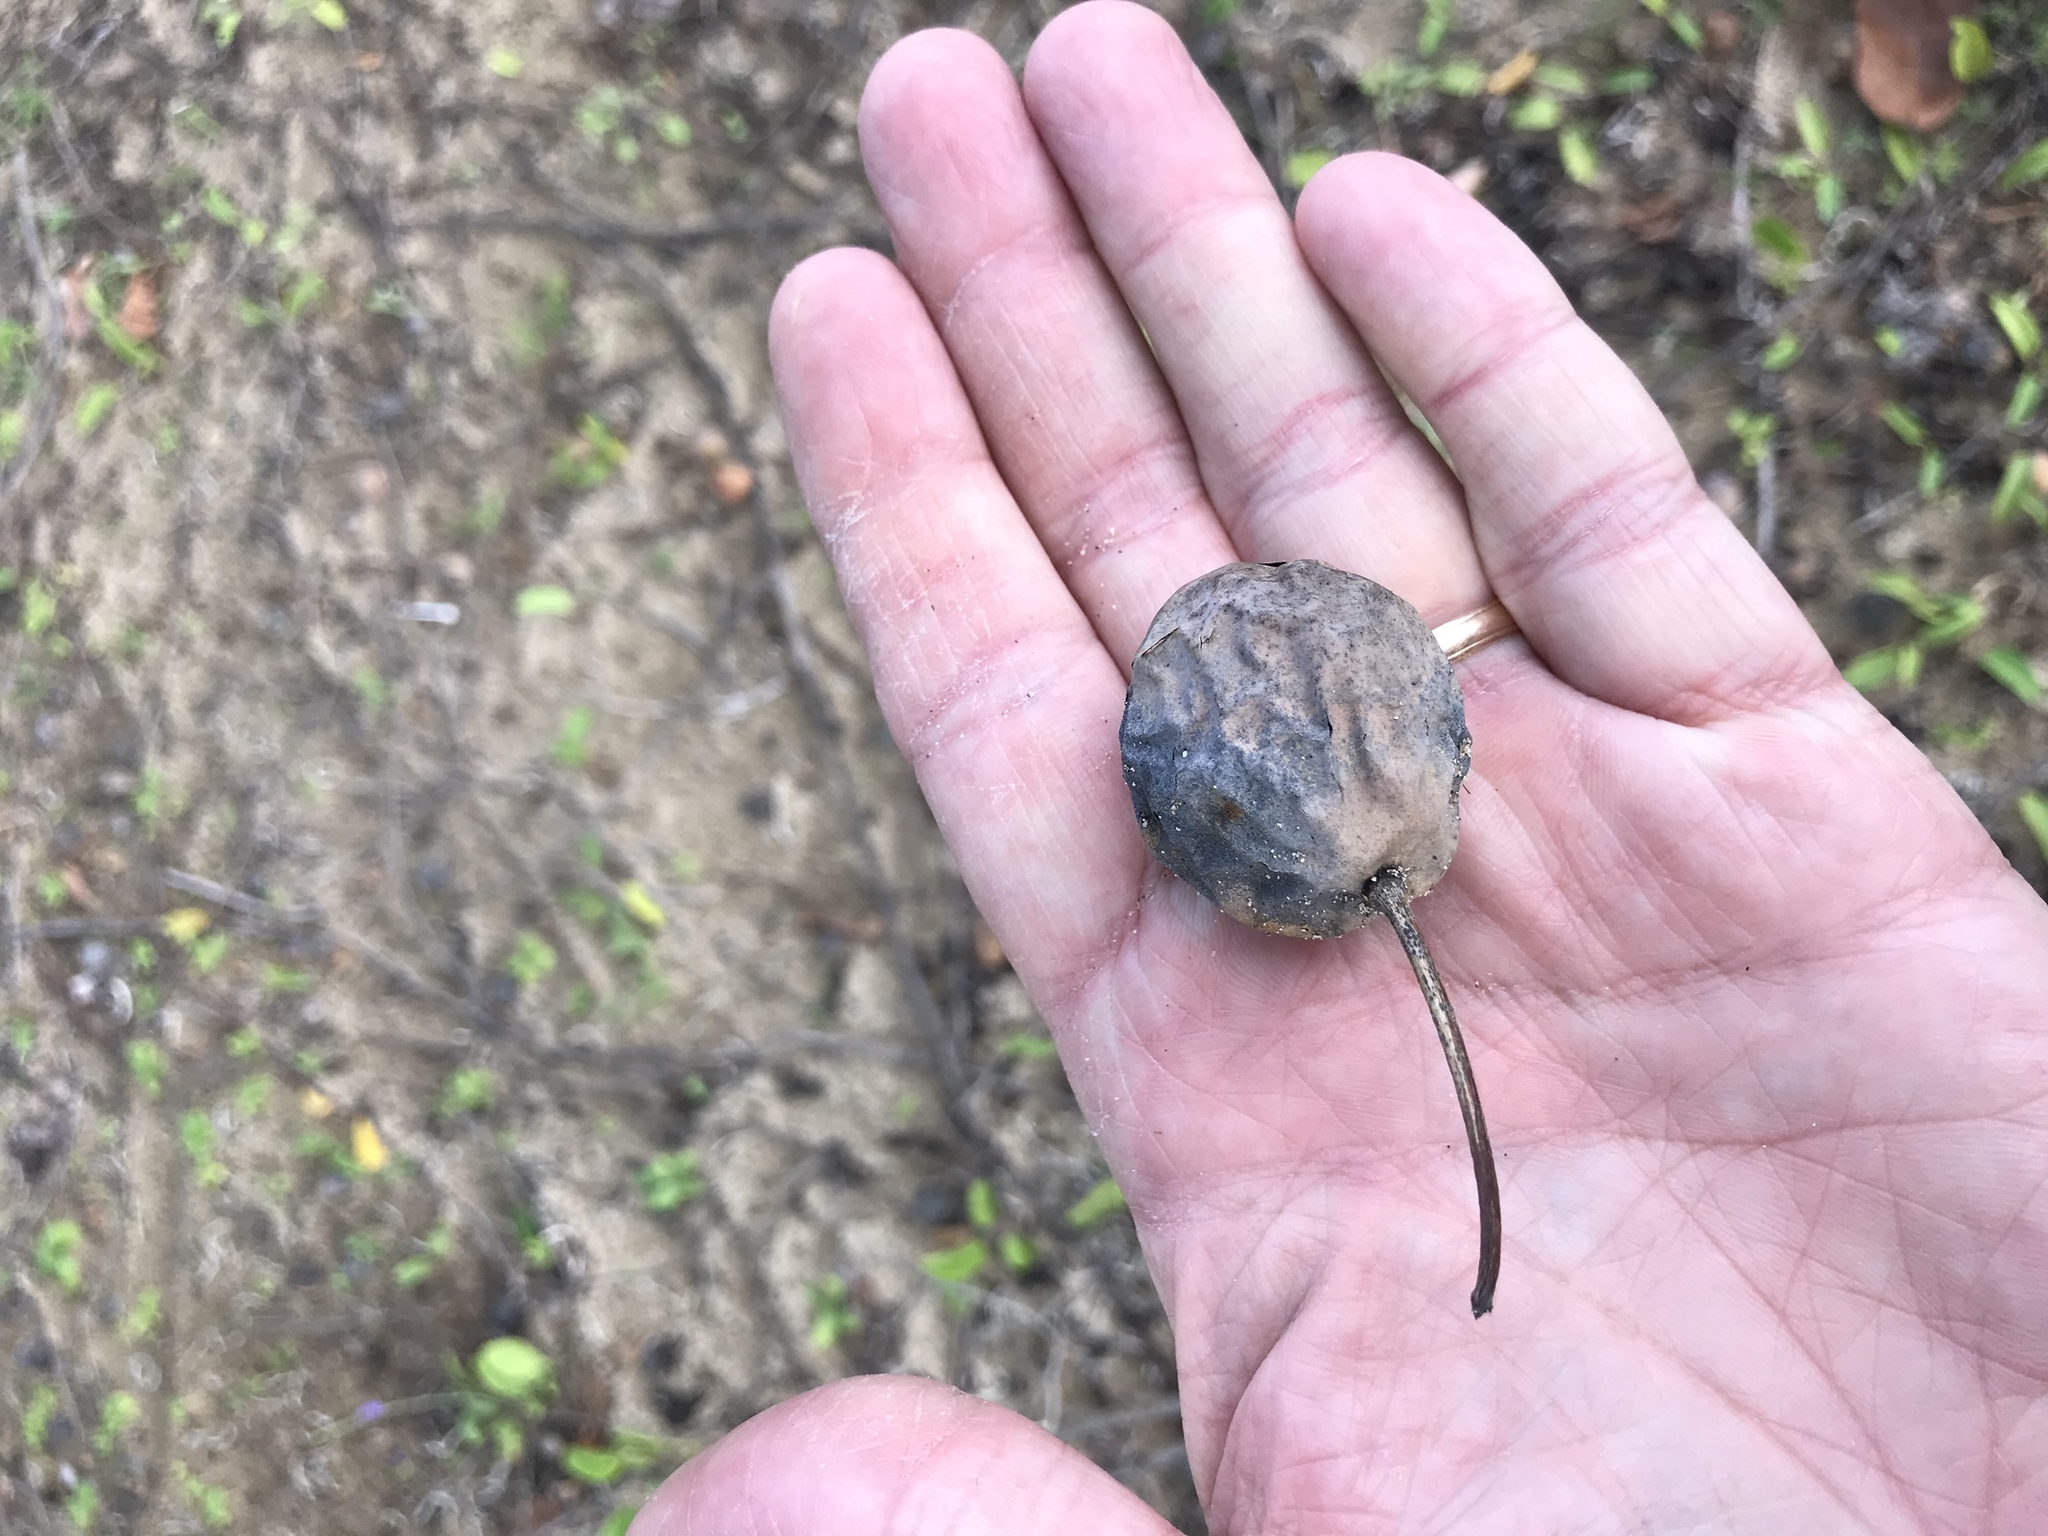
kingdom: Plantae
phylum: Tracheophyta
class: Magnoliopsida
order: Malpighiales
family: Calophyllaceae
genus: Calophyllum
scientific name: Calophyllum inophyllum
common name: Alexandrian laurel
